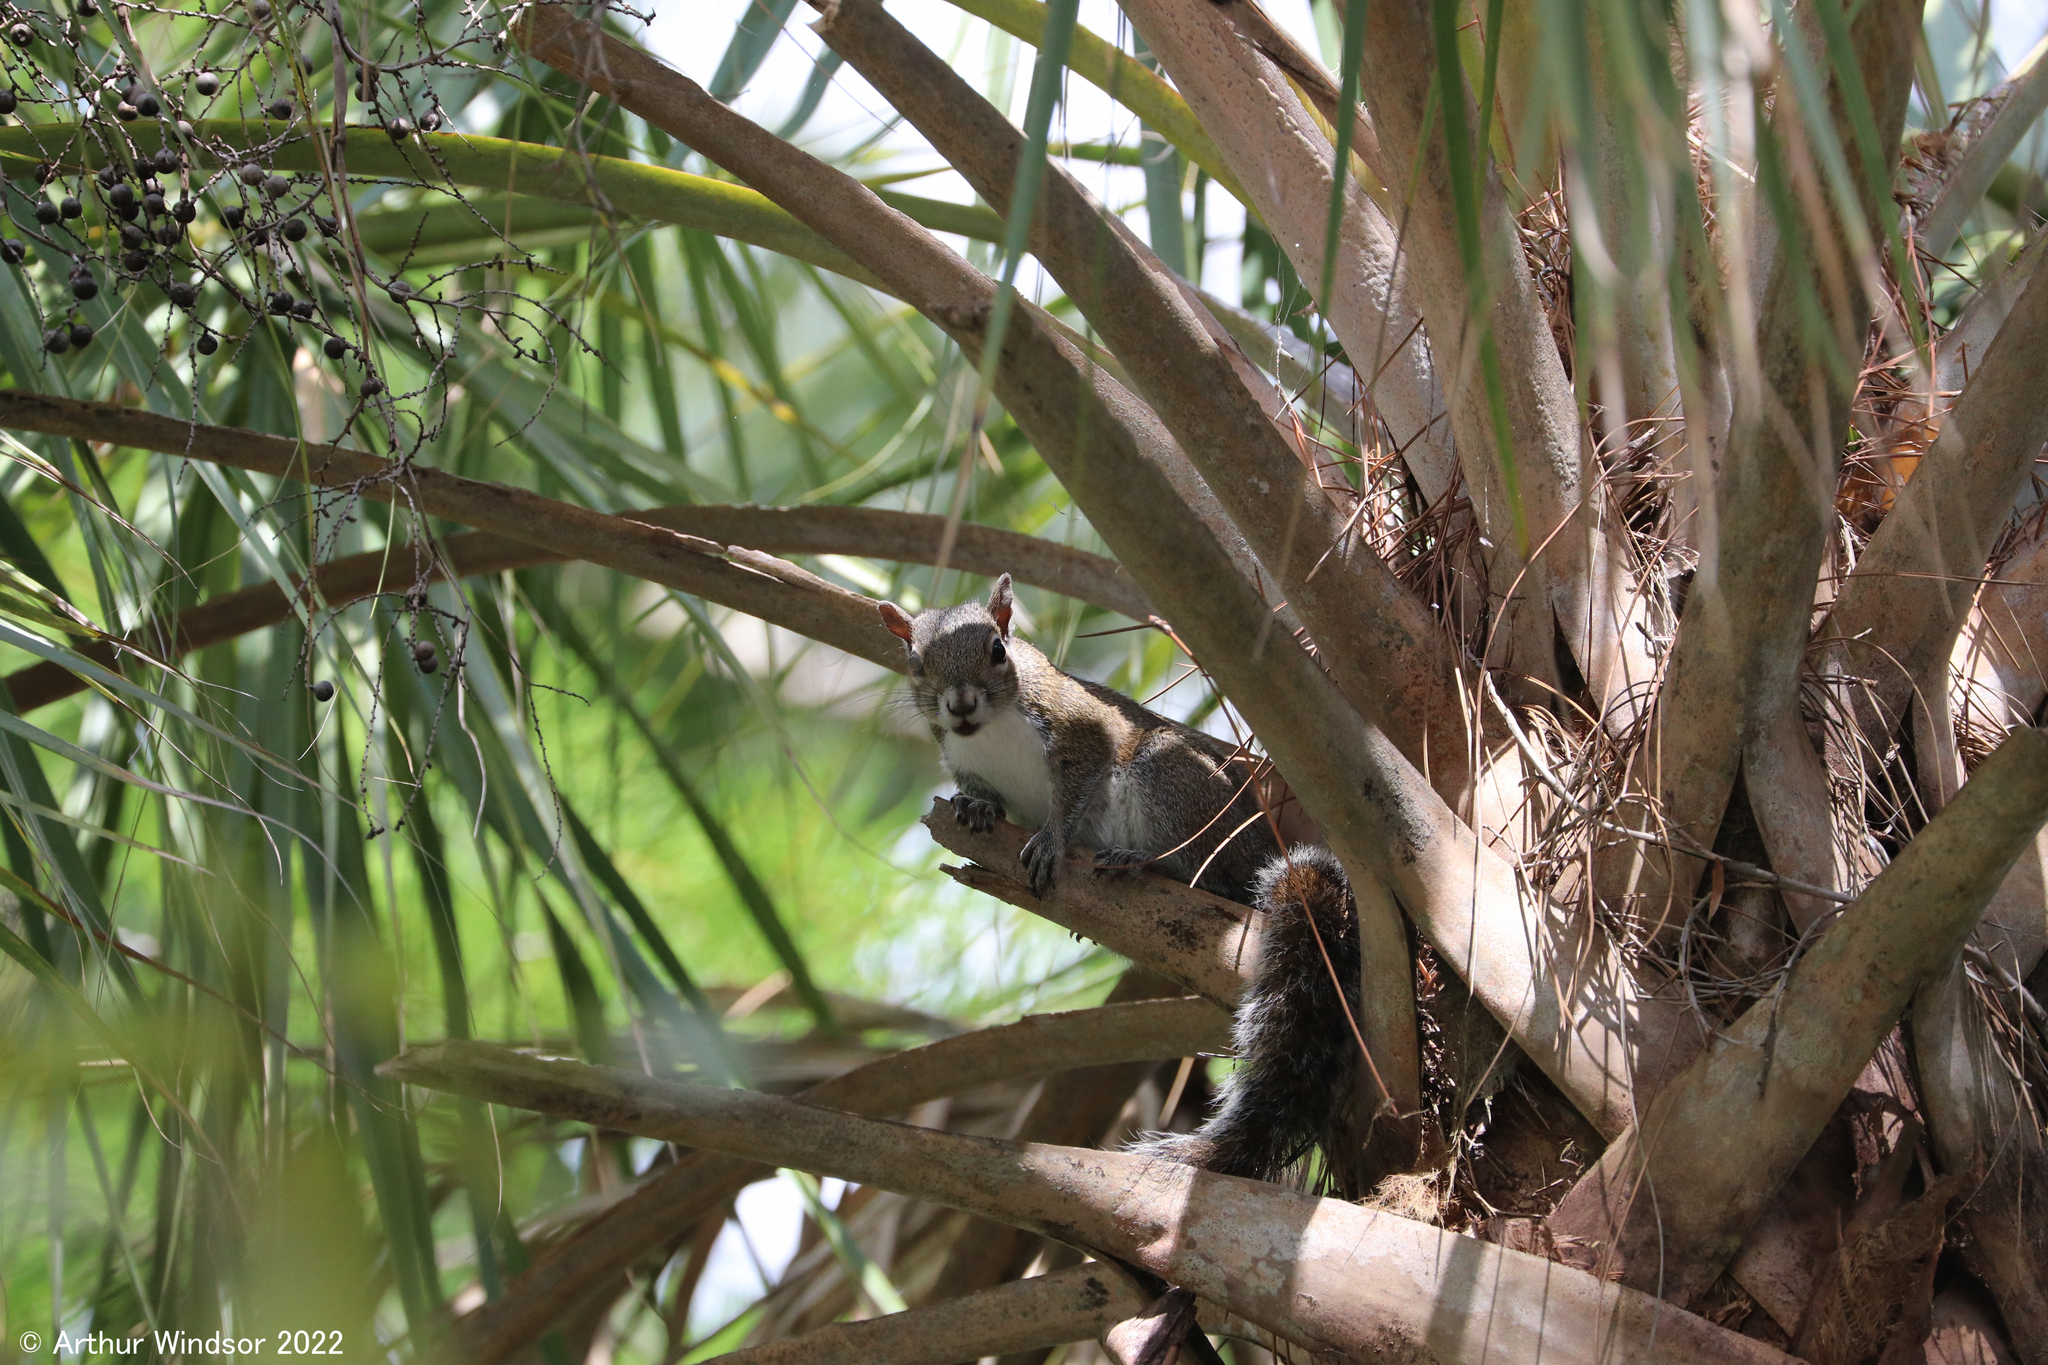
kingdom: Animalia
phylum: Chordata
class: Mammalia
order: Rodentia
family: Sciuridae
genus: Sciurus
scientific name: Sciurus carolinensis
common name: Eastern gray squirrel
